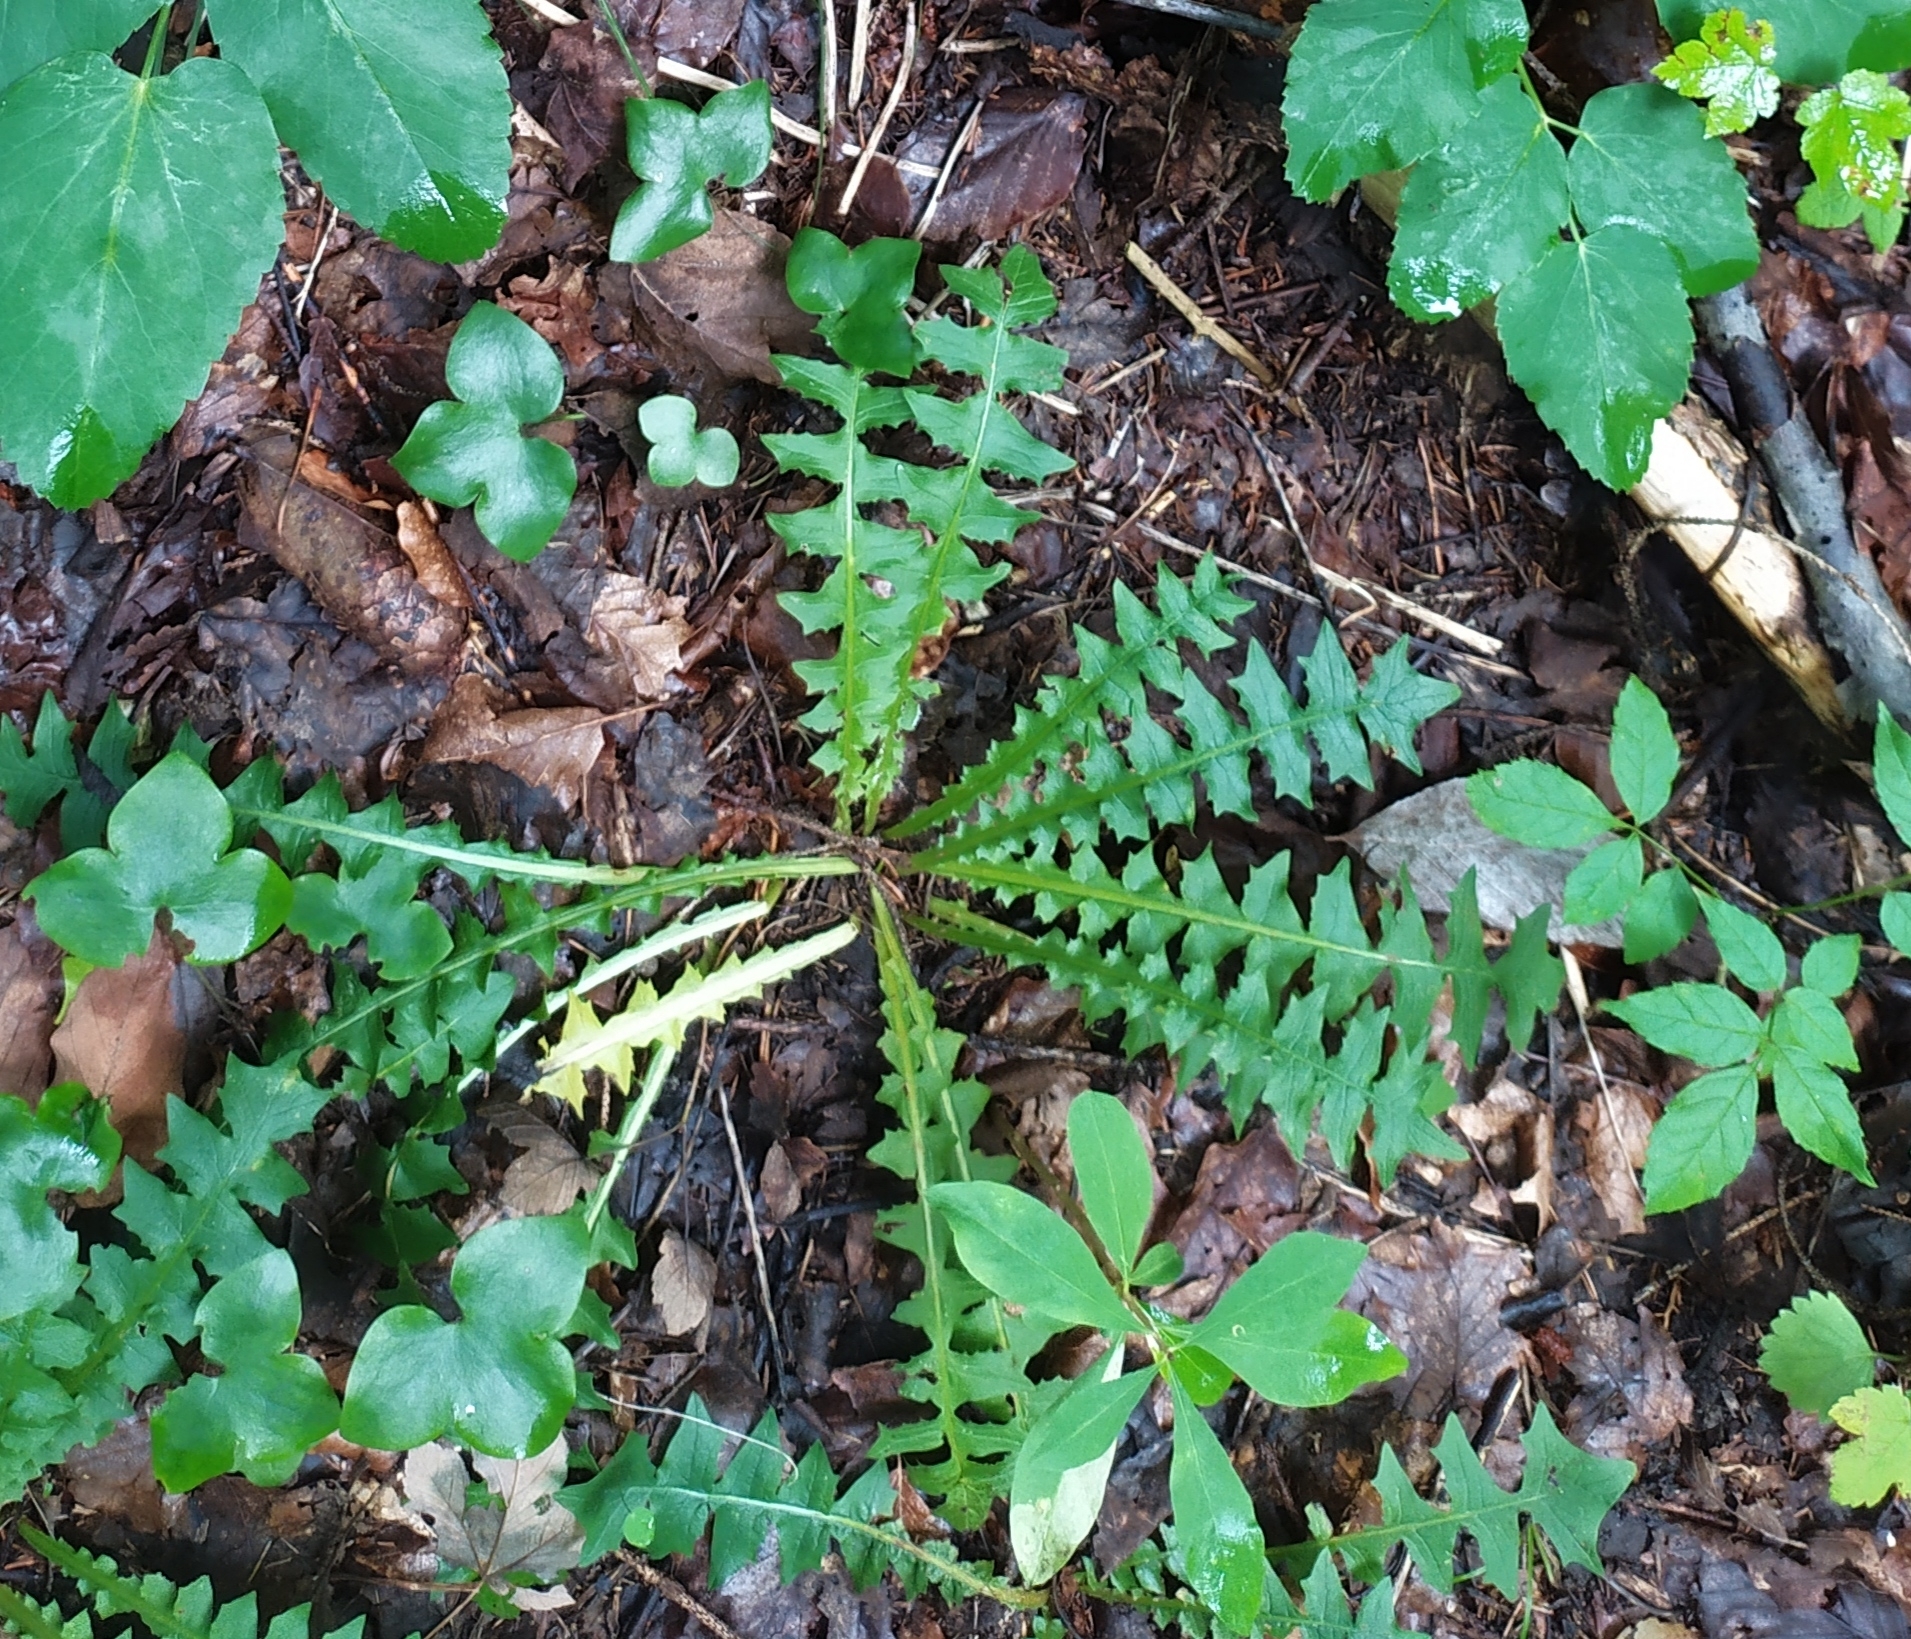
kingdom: Plantae
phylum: Tracheophyta
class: Magnoliopsida
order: Asterales
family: Asteraceae
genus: Aposeris
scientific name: Aposeris foetida
